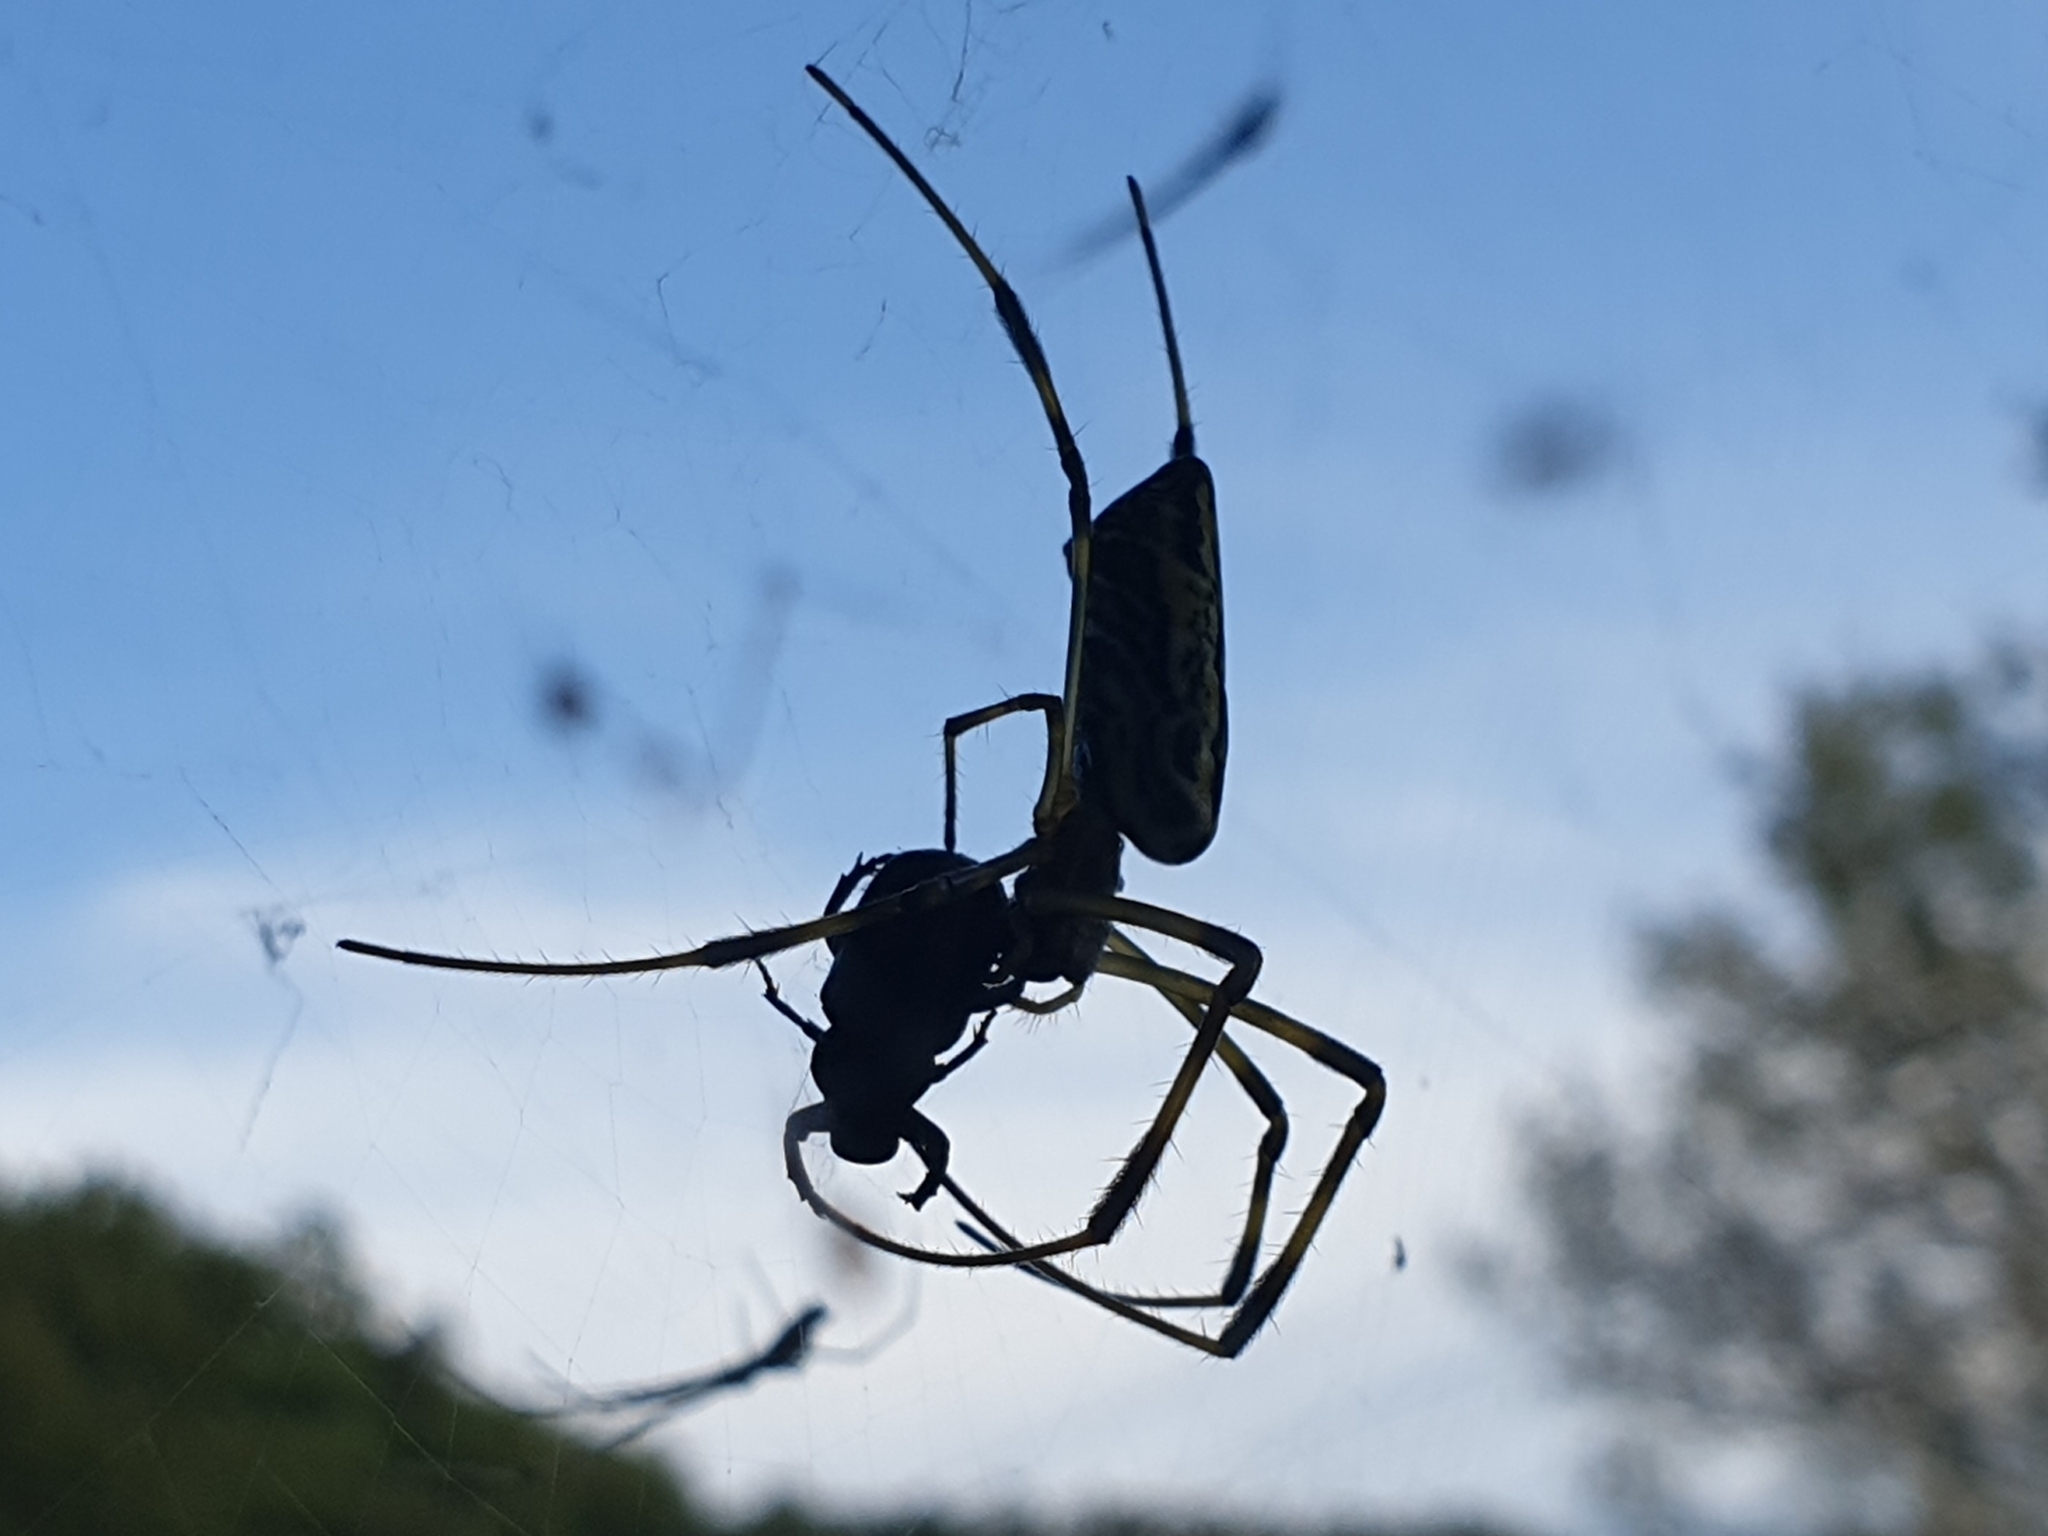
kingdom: Animalia
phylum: Arthropoda
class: Insecta
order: Coleoptera
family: Scarabaeidae
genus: Clinterocera
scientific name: Clinterocera scabrosa
